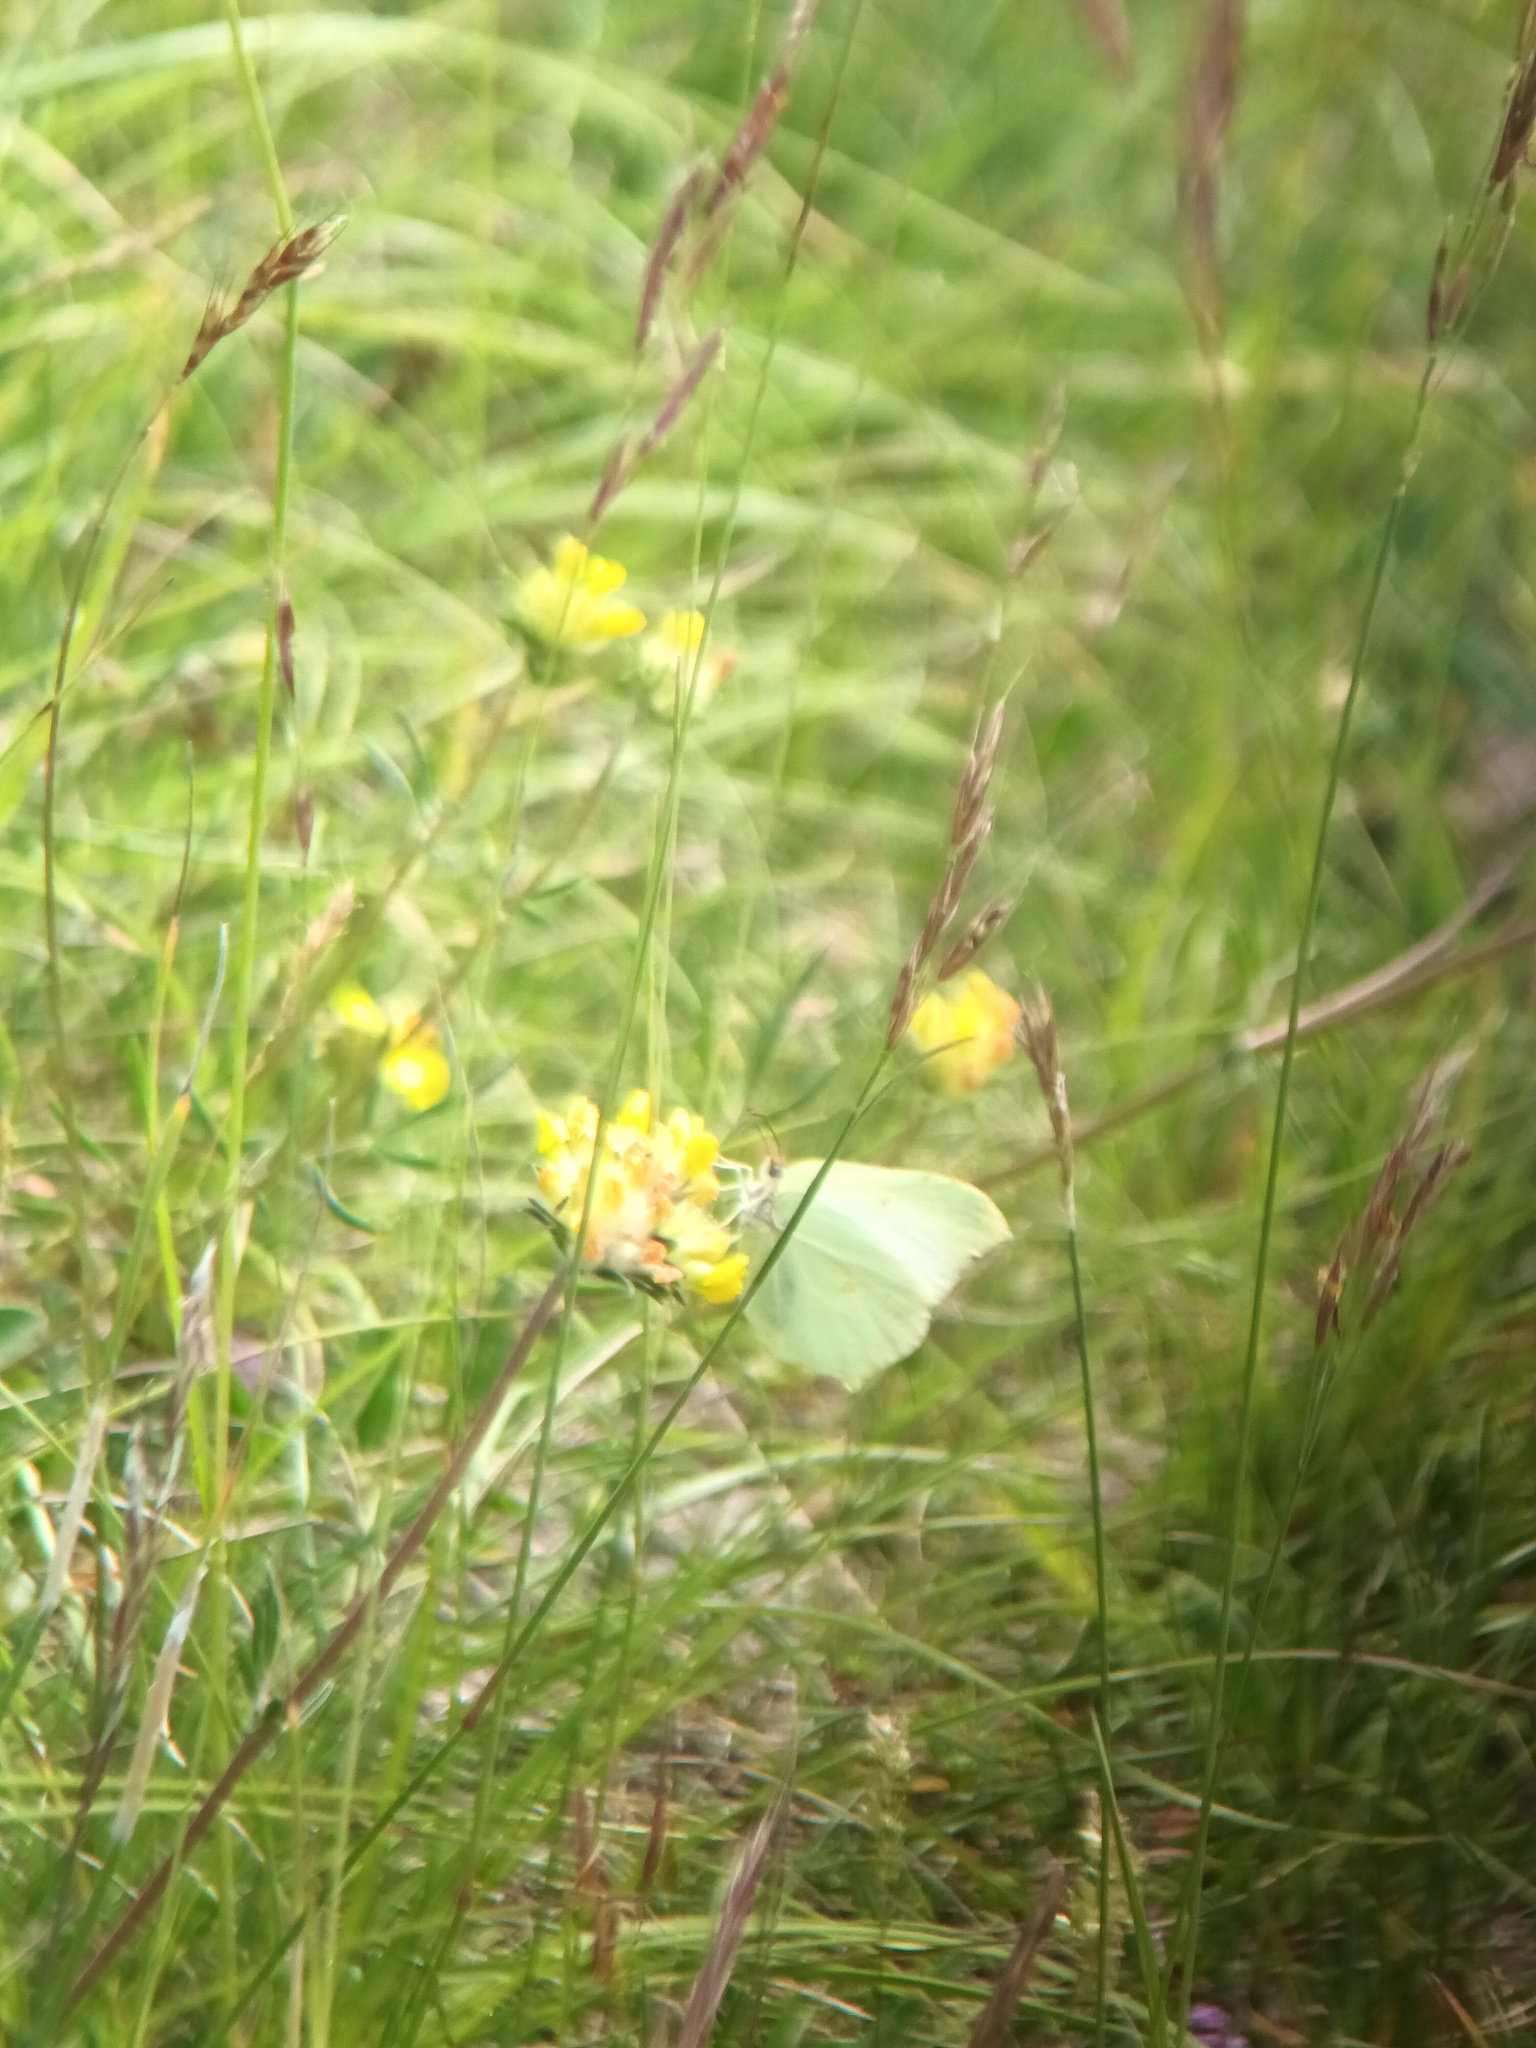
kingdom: Animalia
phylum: Arthropoda
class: Insecta
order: Lepidoptera
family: Pieridae
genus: Gonepteryx
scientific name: Gonepteryx rhamni
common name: Brimstone
